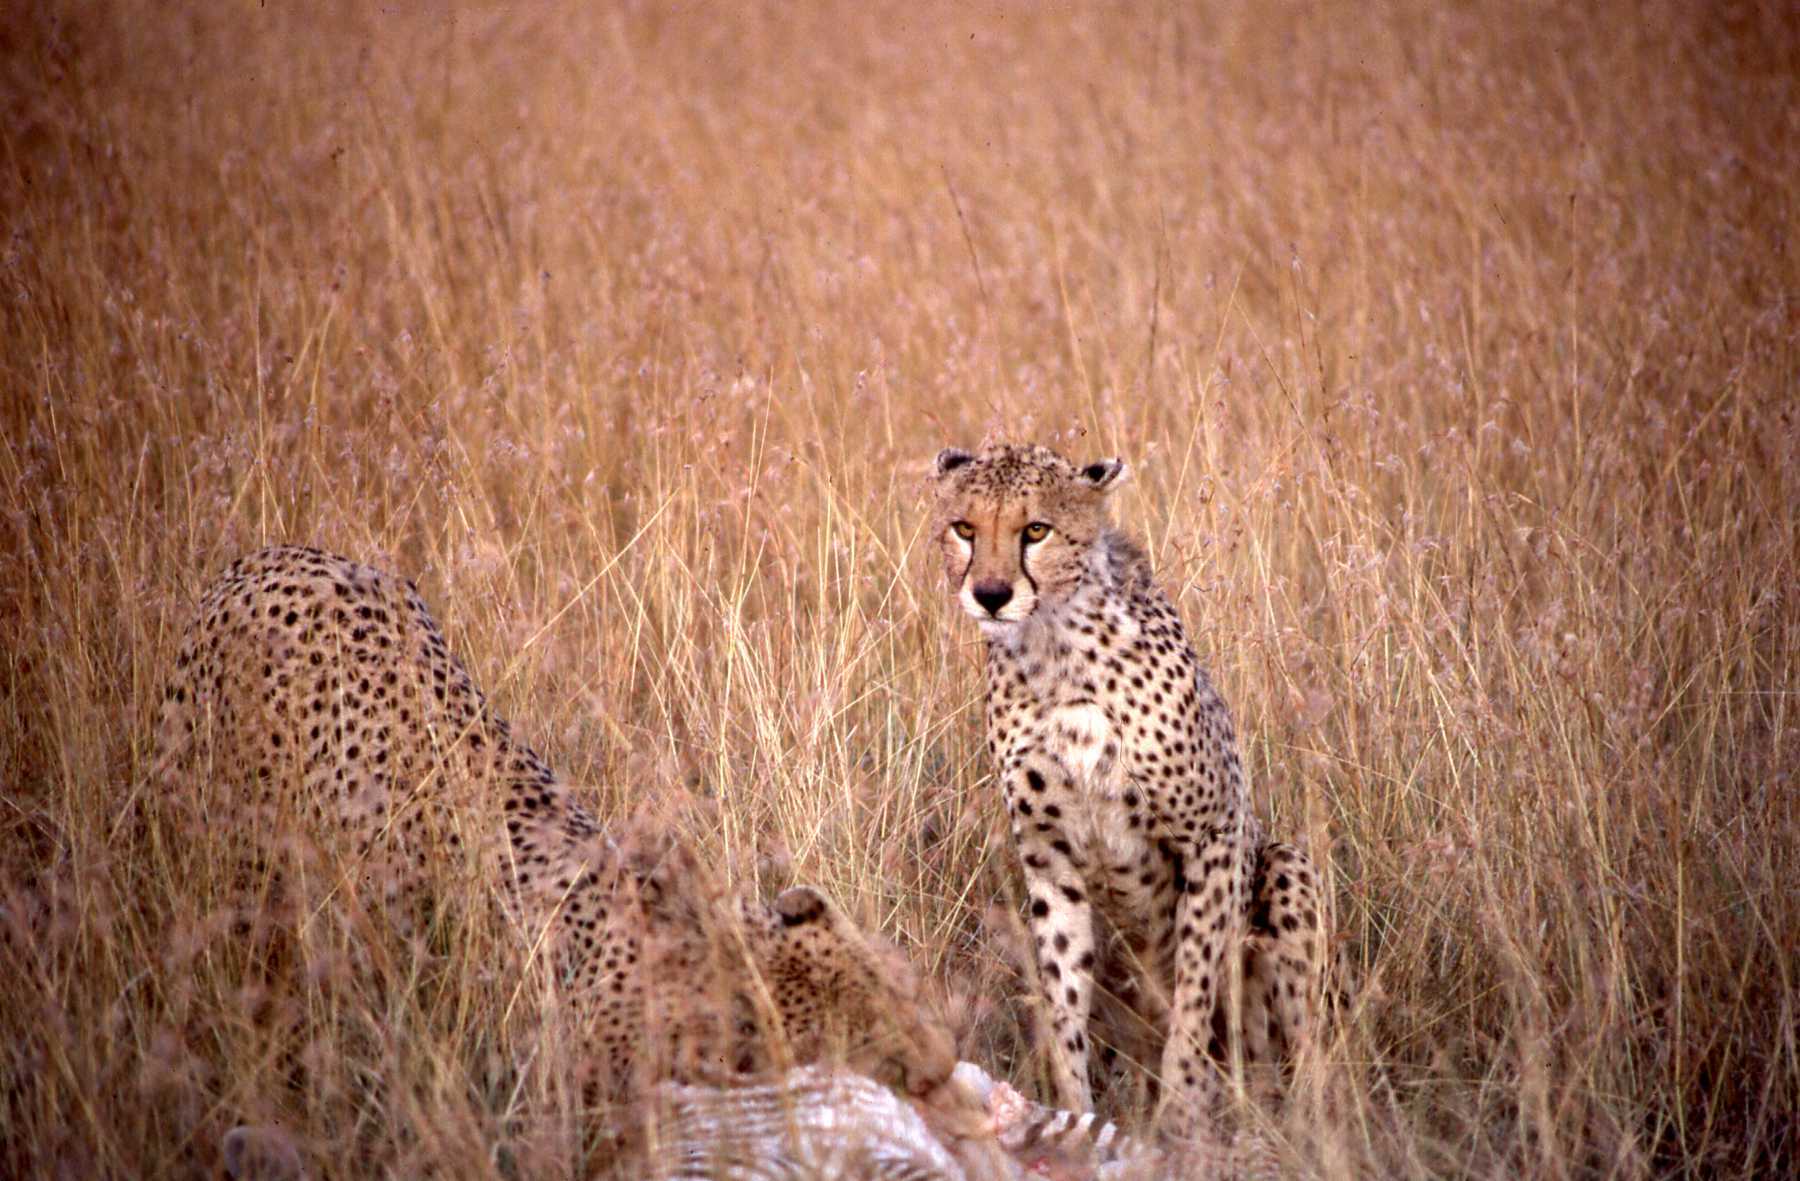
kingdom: Animalia
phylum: Chordata
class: Mammalia
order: Carnivora
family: Felidae
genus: Acinonyx
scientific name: Acinonyx jubatus
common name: Cheetah
